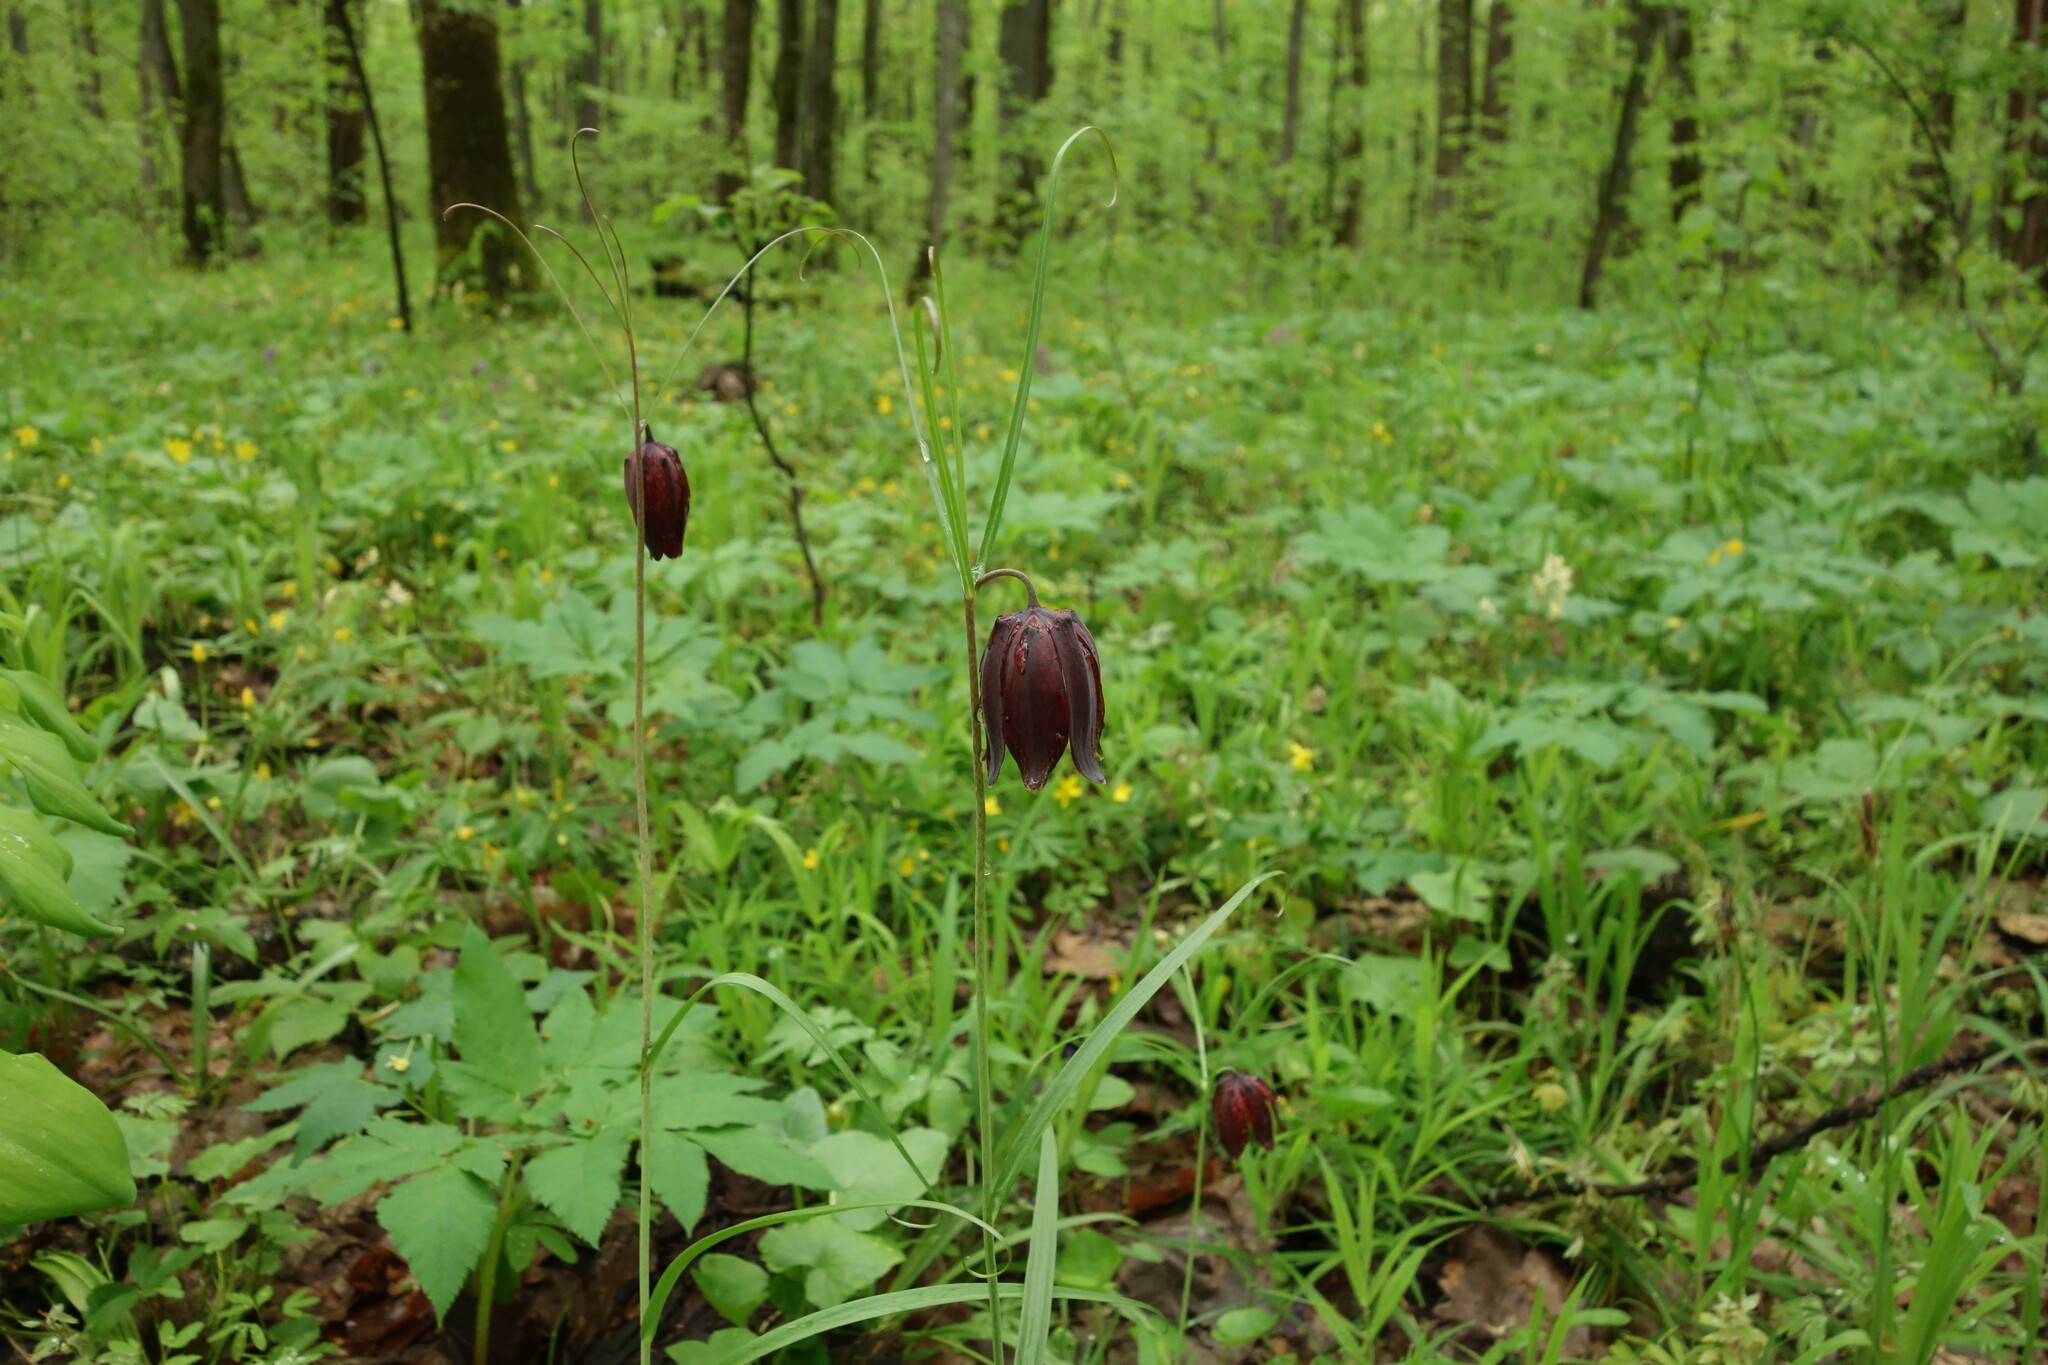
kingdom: Plantae
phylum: Tracheophyta
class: Liliopsida
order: Liliales
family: Liliaceae
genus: Fritillaria
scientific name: Fritillaria ruthenica
